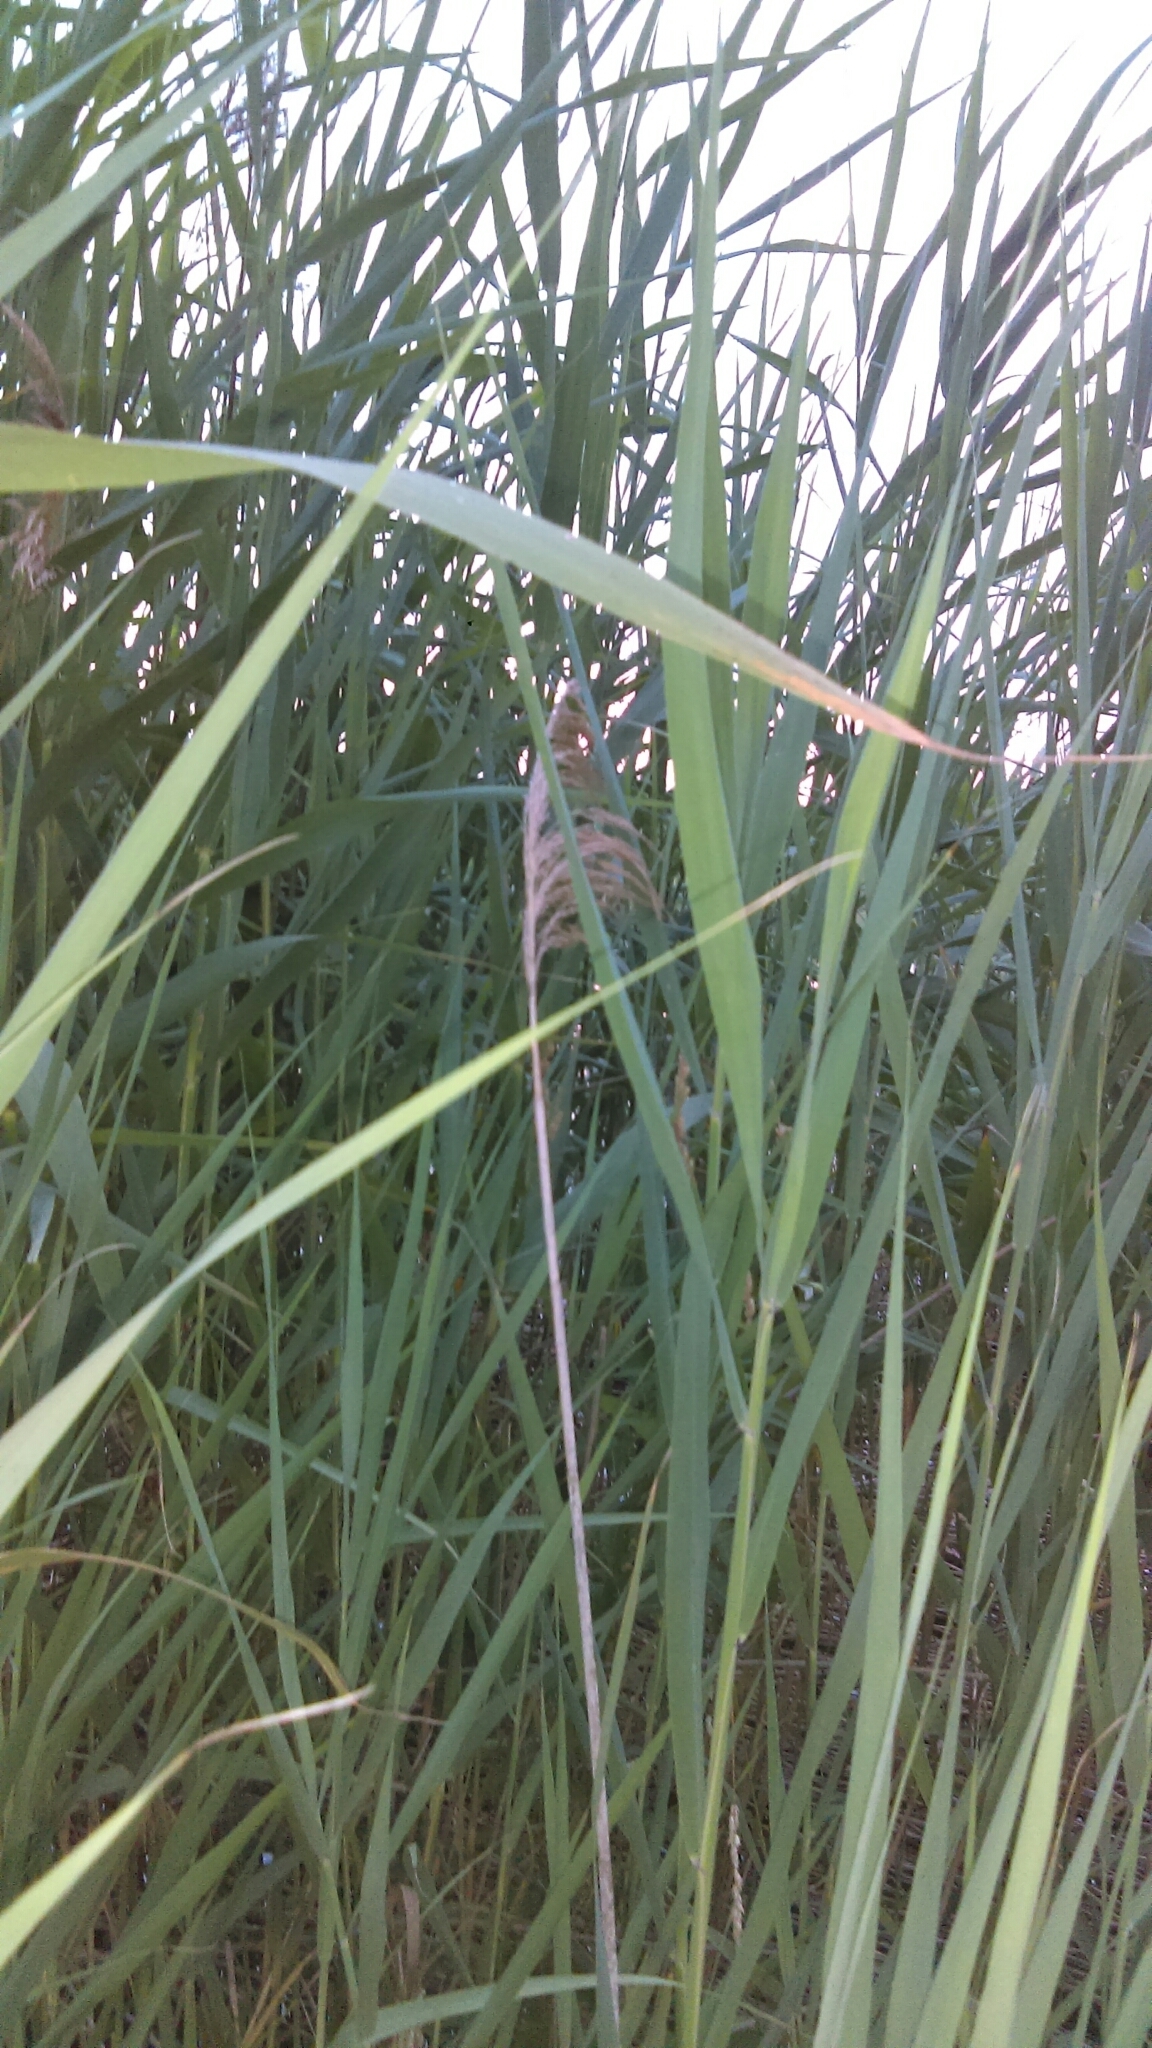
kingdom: Plantae
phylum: Tracheophyta
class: Liliopsida
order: Poales
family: Poaceae
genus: Phragmites
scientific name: Phragmites australis
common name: Common reed
